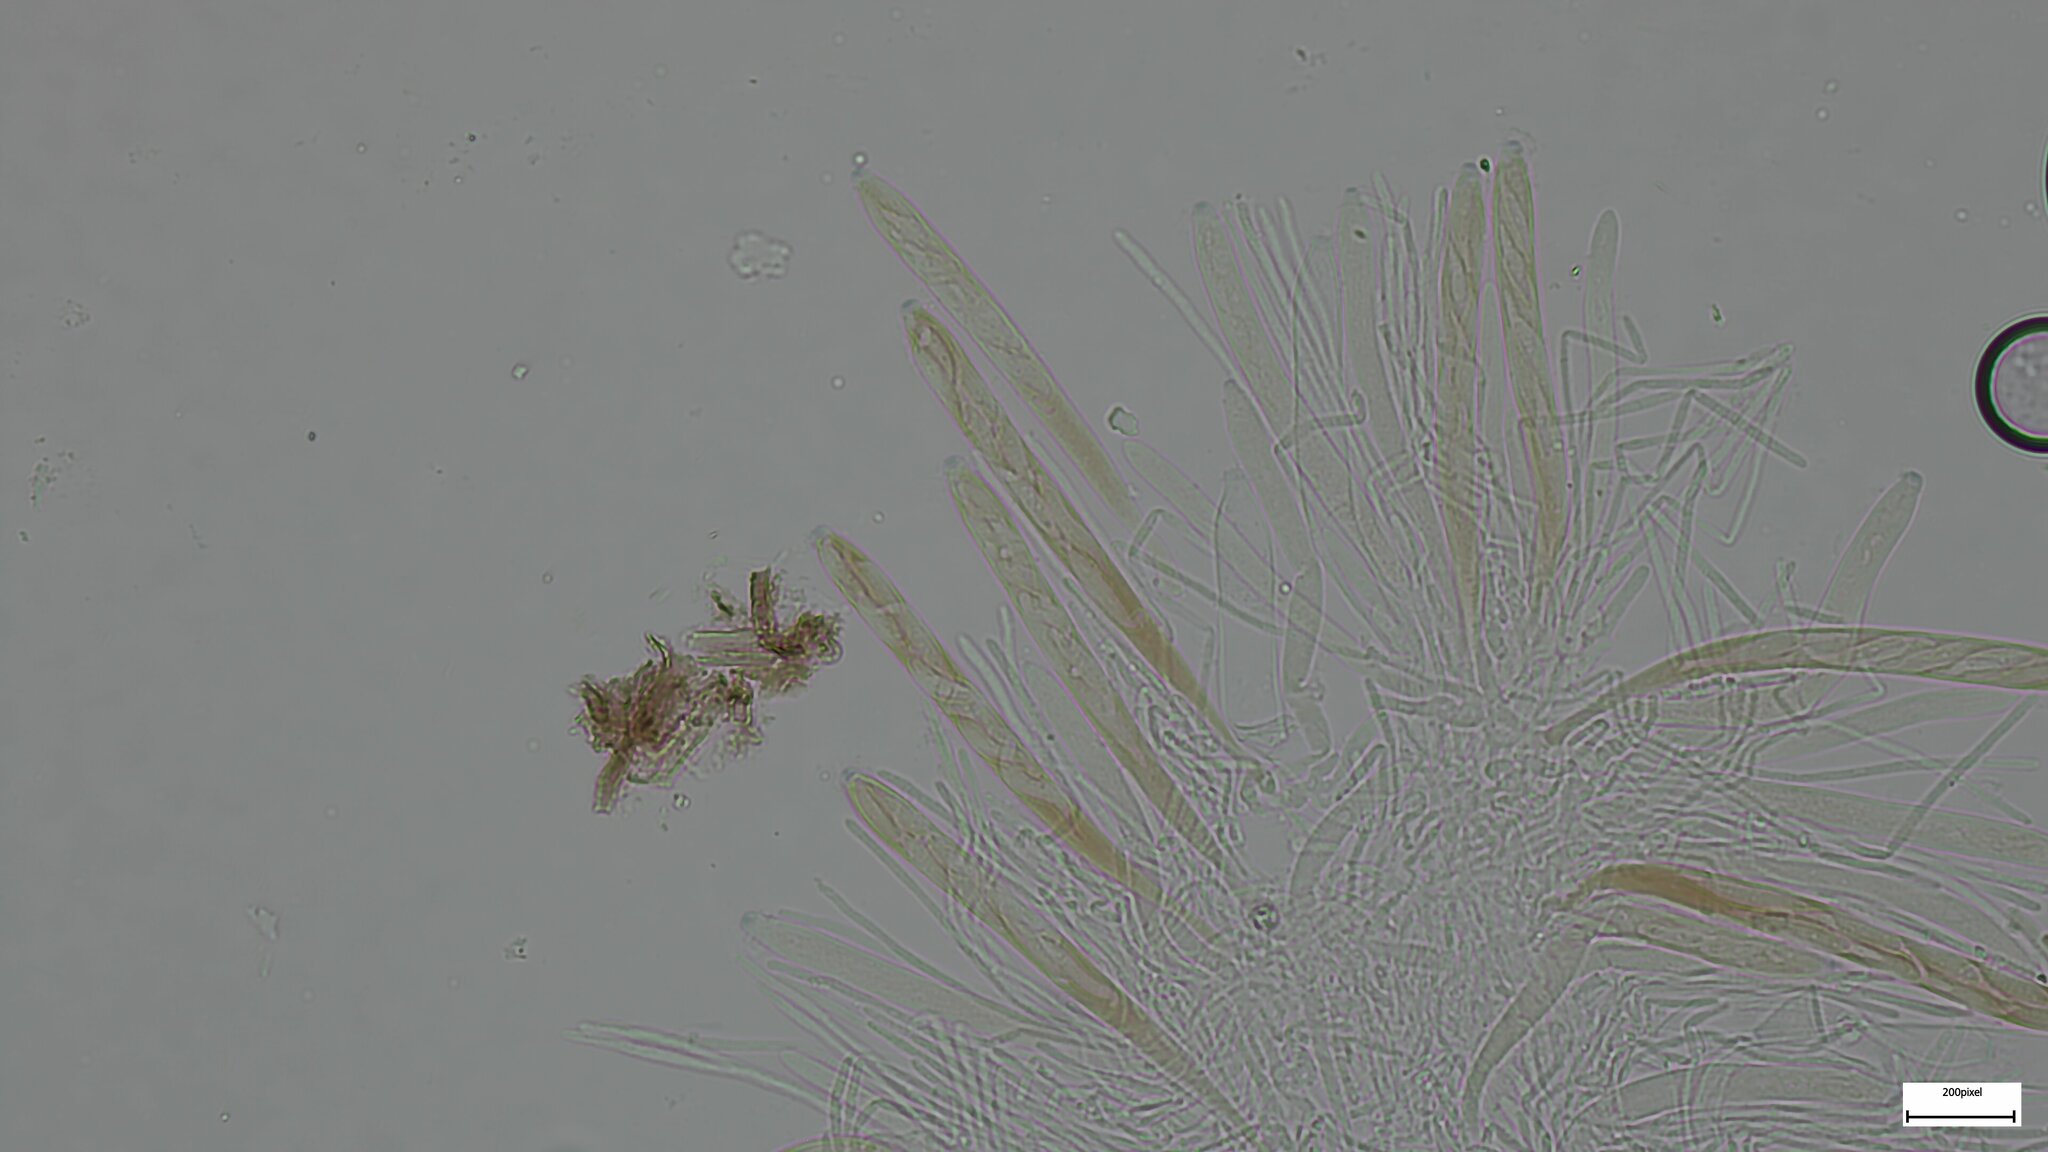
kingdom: Fungi
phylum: Ascomycota
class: Leotiomycetes
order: Helotiales
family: Arachnopezizaceae
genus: Arachnopeziza
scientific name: Arachnopeziza aurelia
